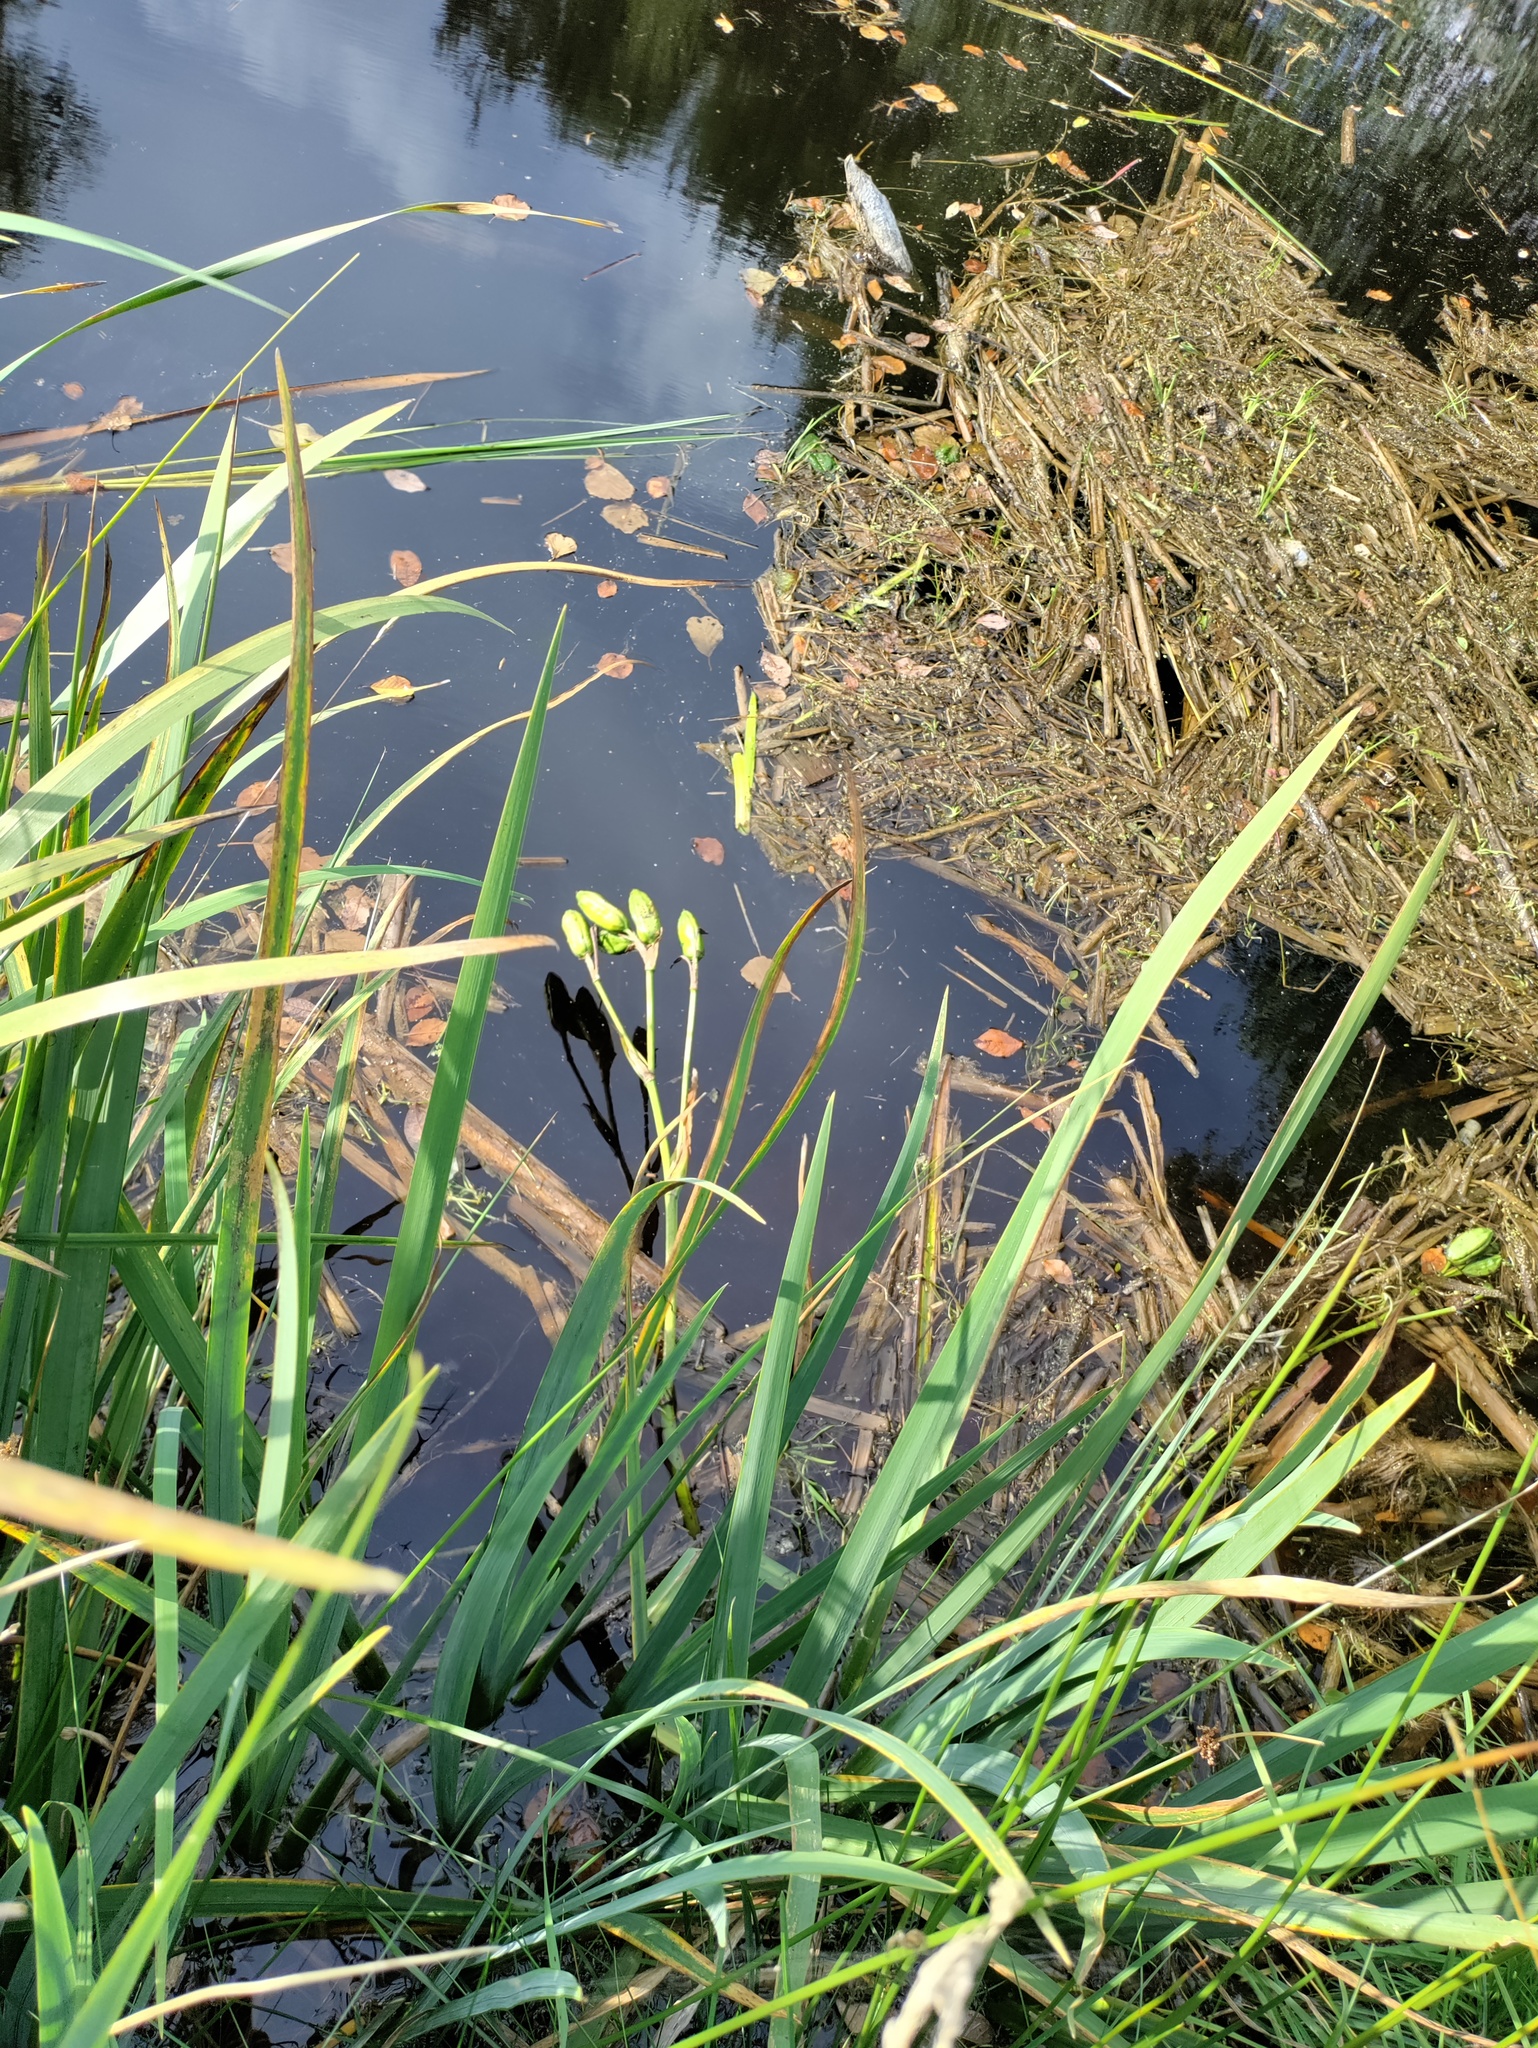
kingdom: Plantae
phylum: Tracheophyta
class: Liliopsida
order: Asparagales
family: Iridaceae
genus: Iris
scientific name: Iris pseudacorus
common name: Yellow flag
